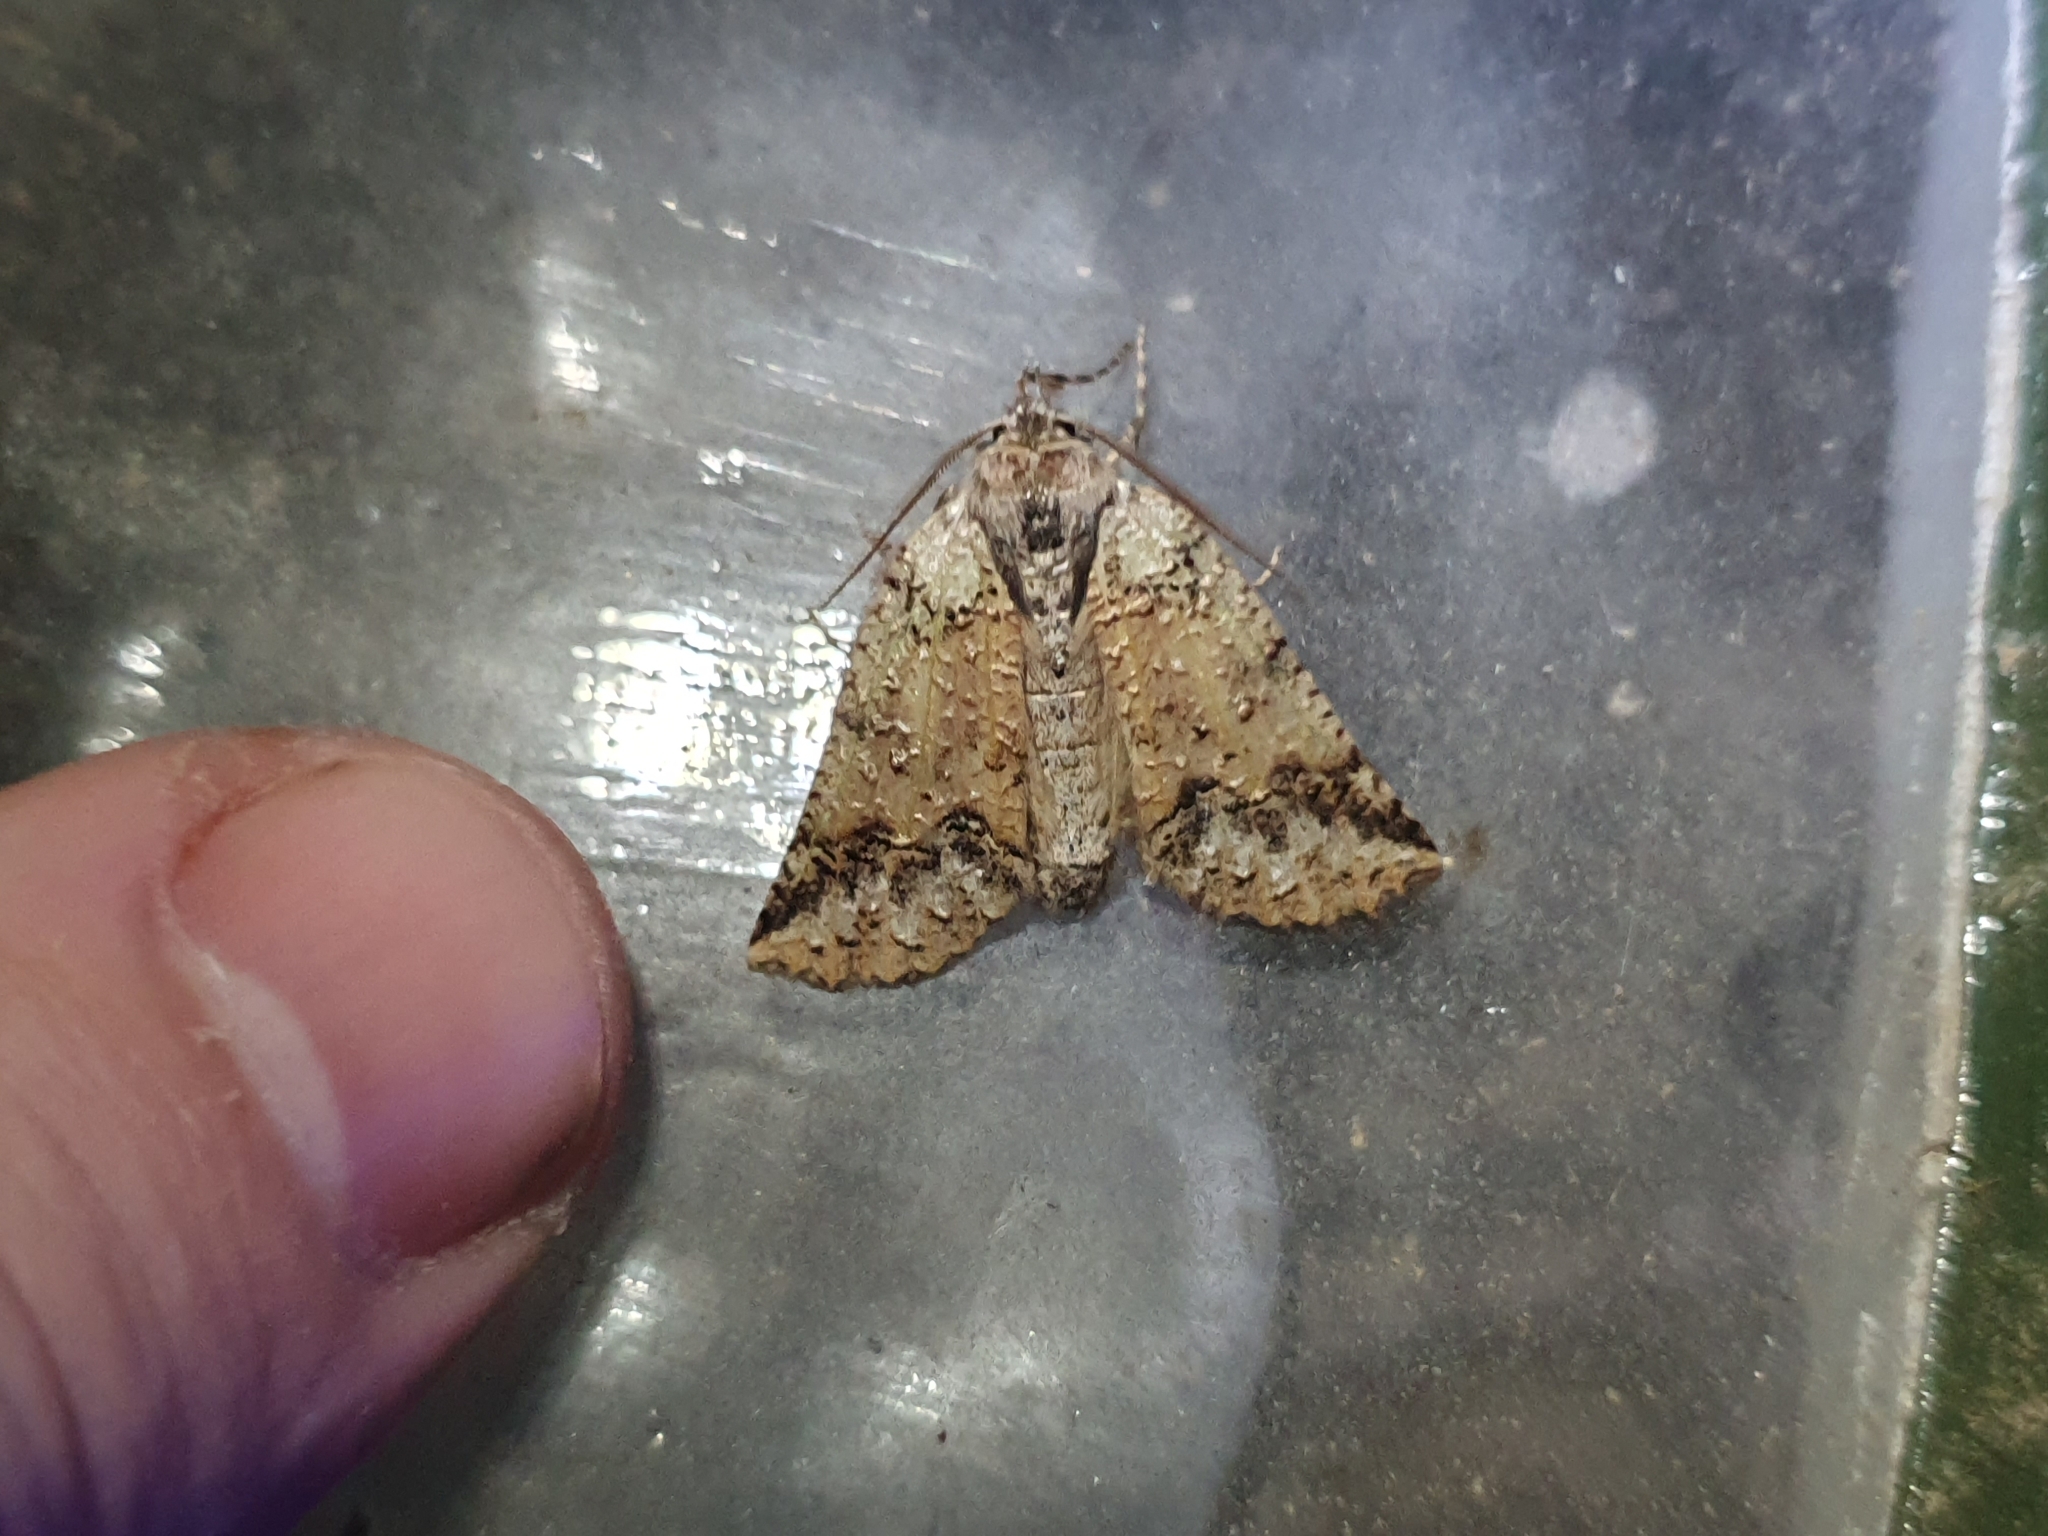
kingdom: Animalia
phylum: Arthropoda
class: Insecta
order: Lepidoptera
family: Geometridae
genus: Declana
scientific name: Declana floccosa
